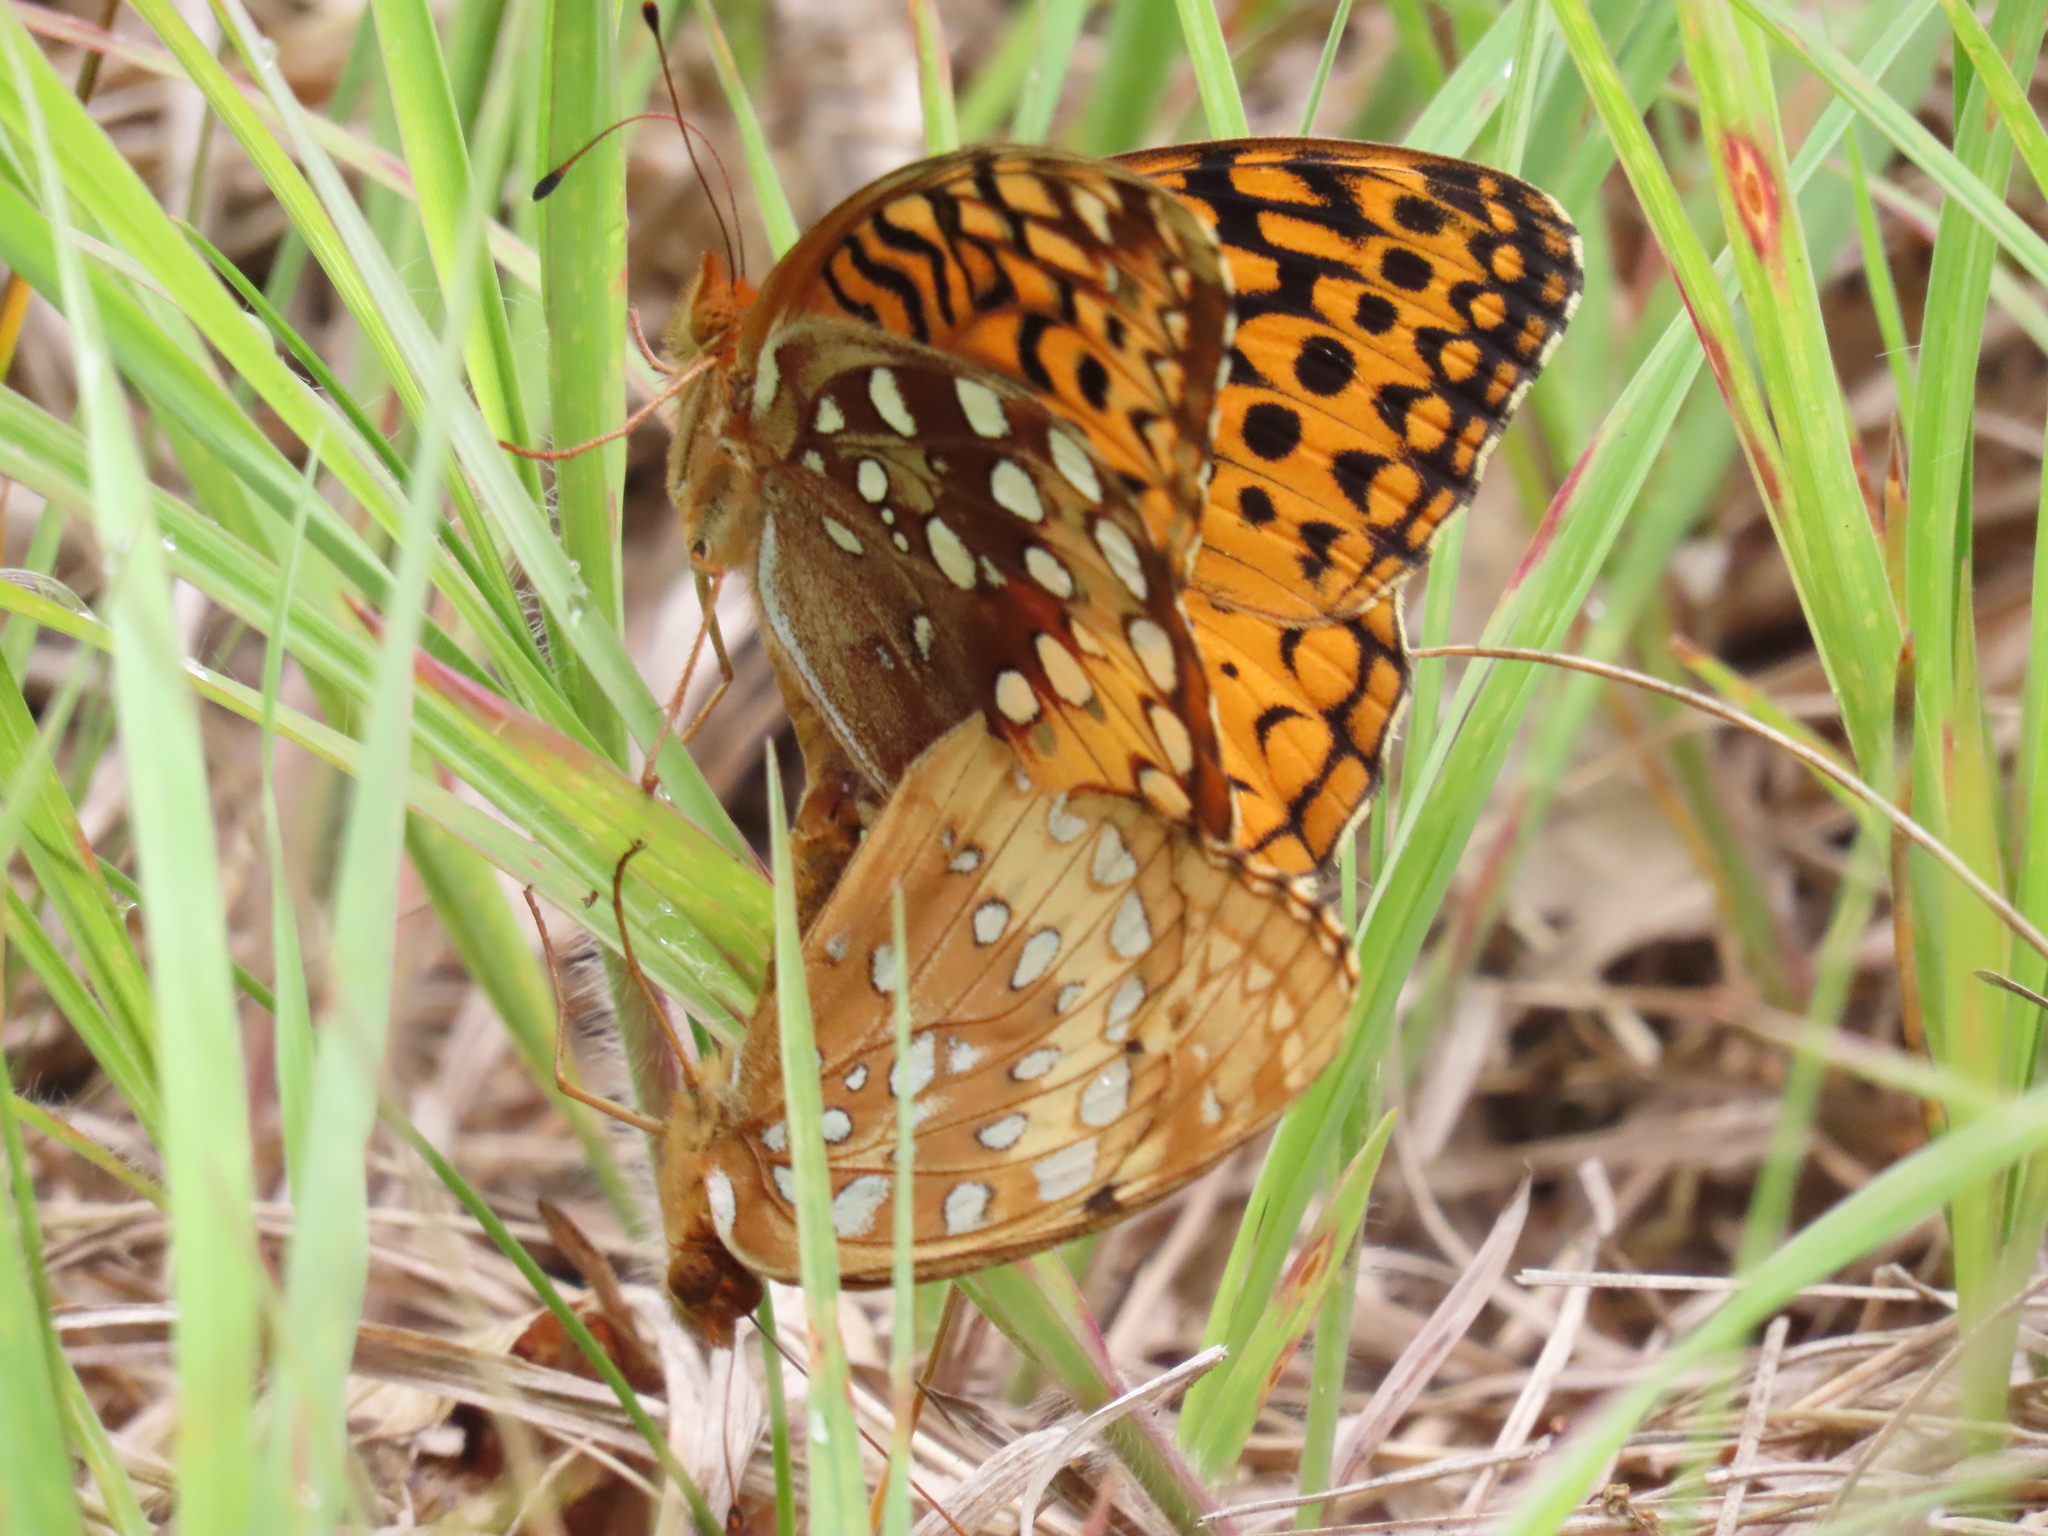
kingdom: Animalia
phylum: Arthropoda
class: Insecta
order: Lepidoptera
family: Nymphalidae
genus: Speyeria
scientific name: Speyeria cybele
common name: Great spangled fritillary
